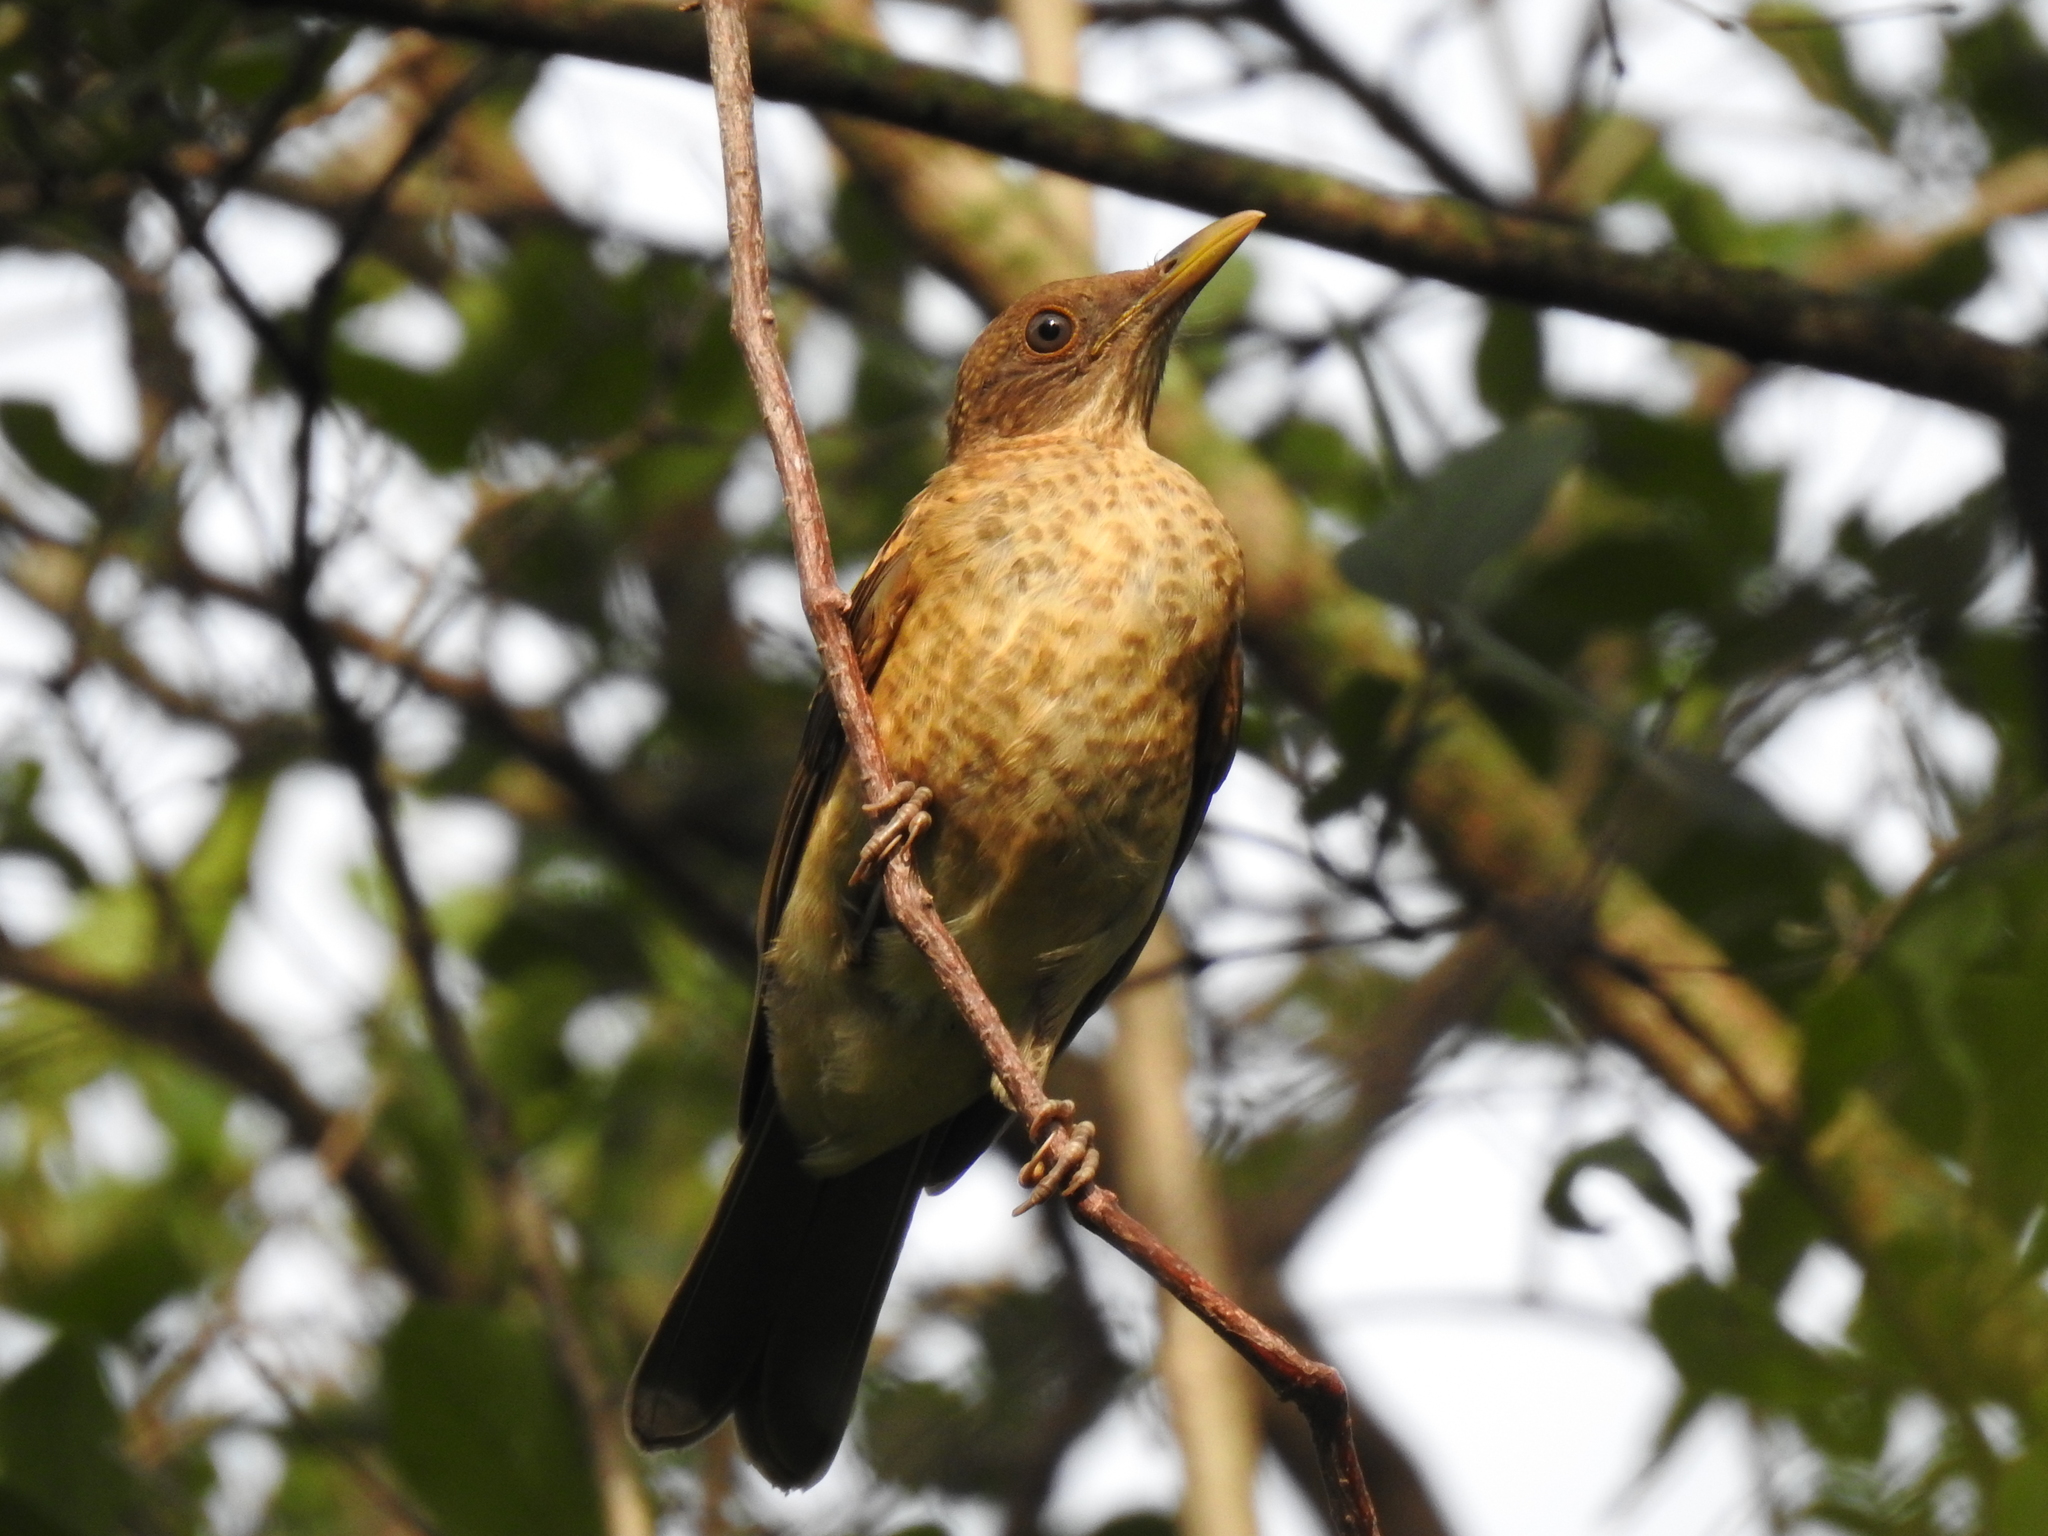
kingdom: Animalia
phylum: Chordata
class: Aves
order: Passeriformes
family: Turdidae
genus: Turdus
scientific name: Turdus grayi
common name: Clay-colored thrush
